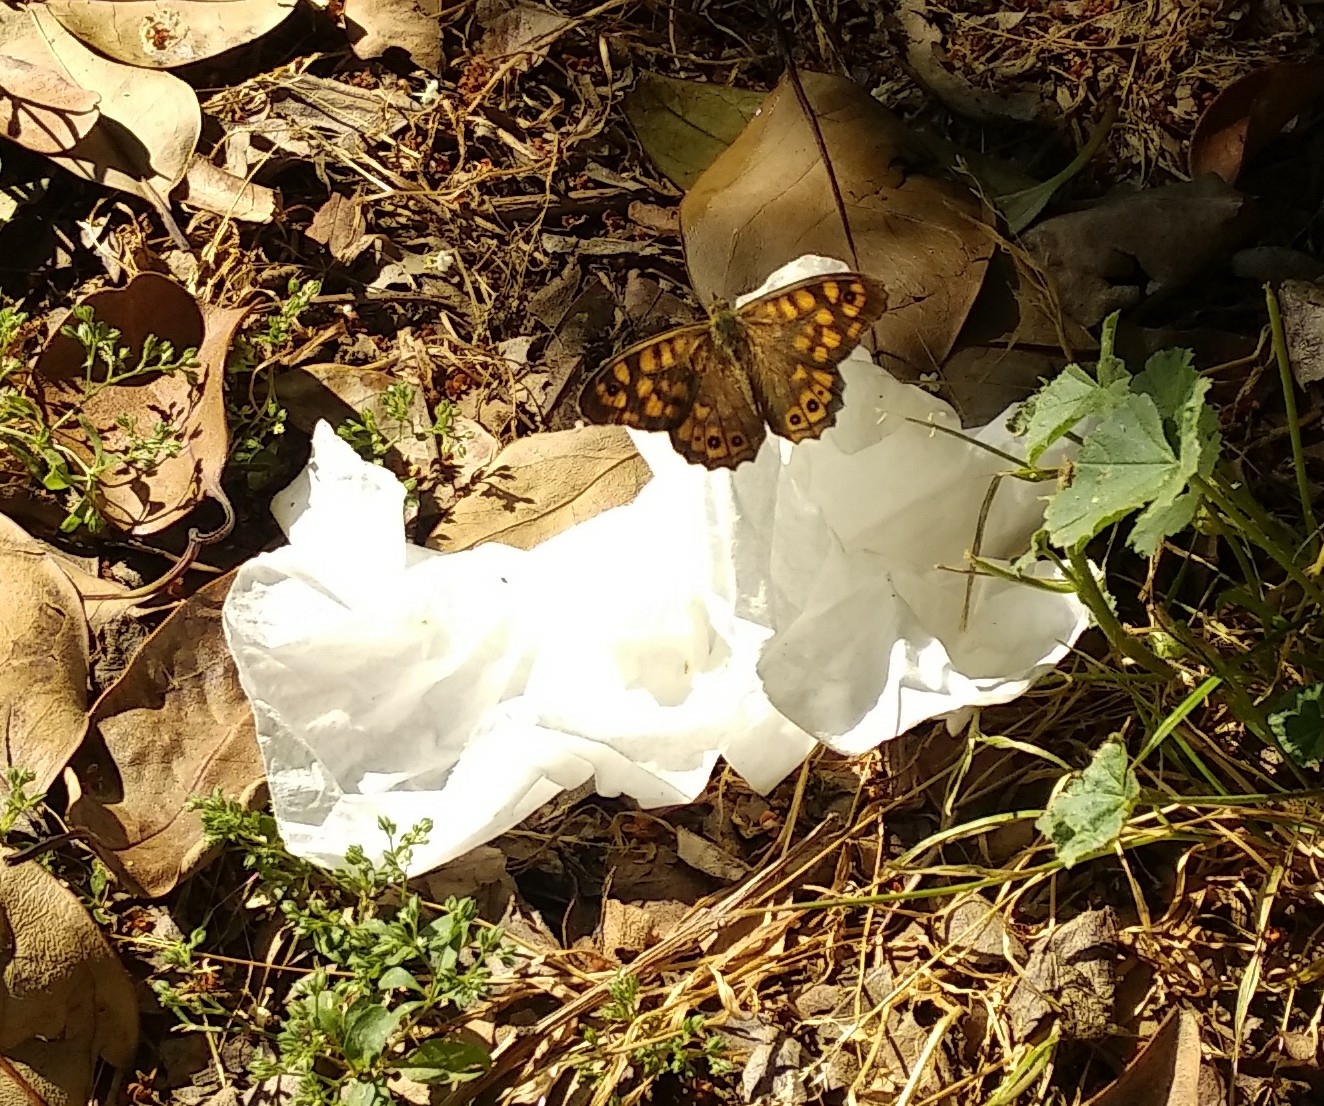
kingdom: Animalia
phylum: Arthropoda
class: Insecta
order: Lepidoptera
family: Nymphalidae
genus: Pararge
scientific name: Pararge aegeria
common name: Speckled wood
